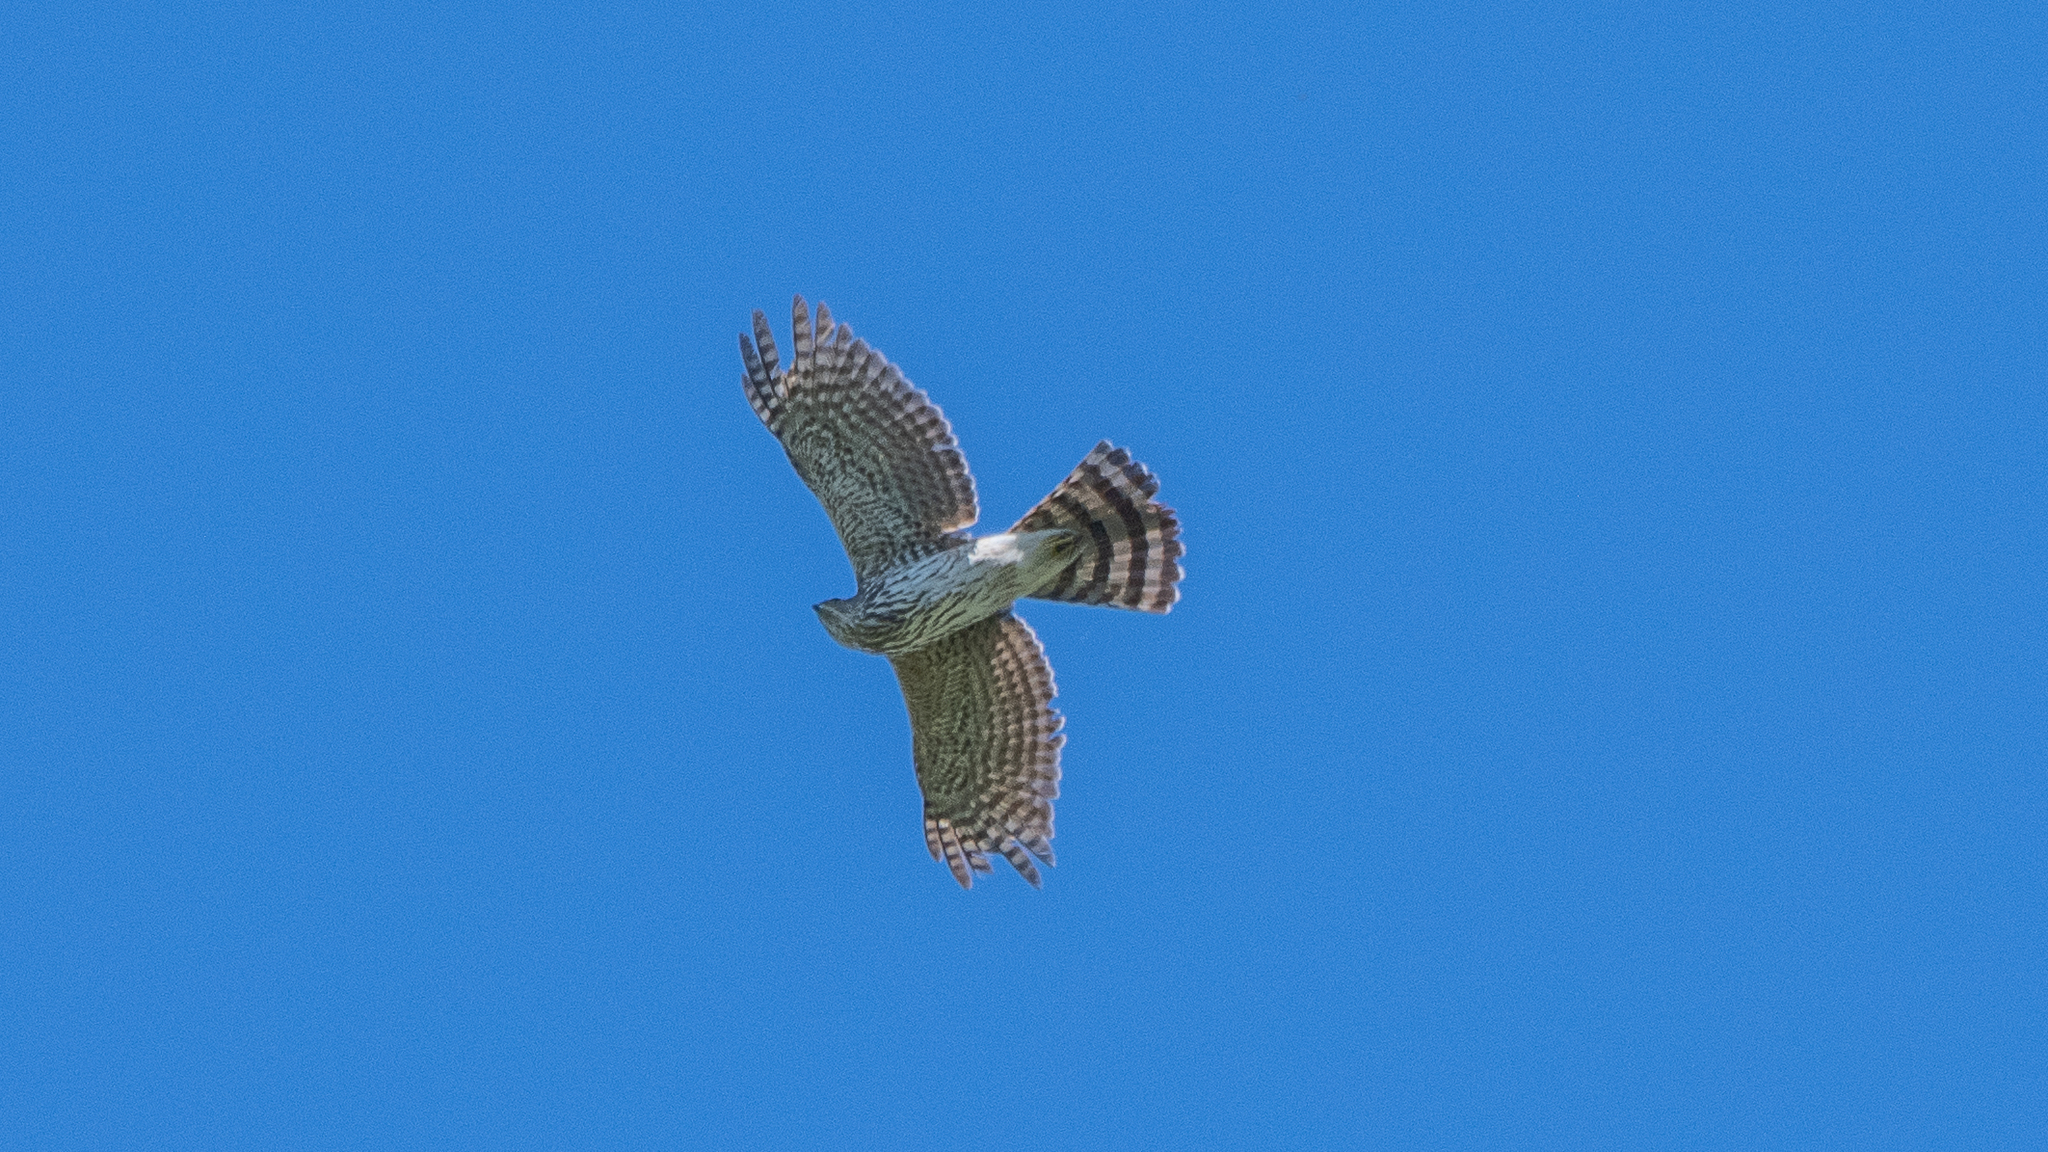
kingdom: Animalia
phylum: Chordata
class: Aves
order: Accipitriformes
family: Accipitridae
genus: Accipiter
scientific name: Accipiter cooperii
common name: Cooper's hawk
